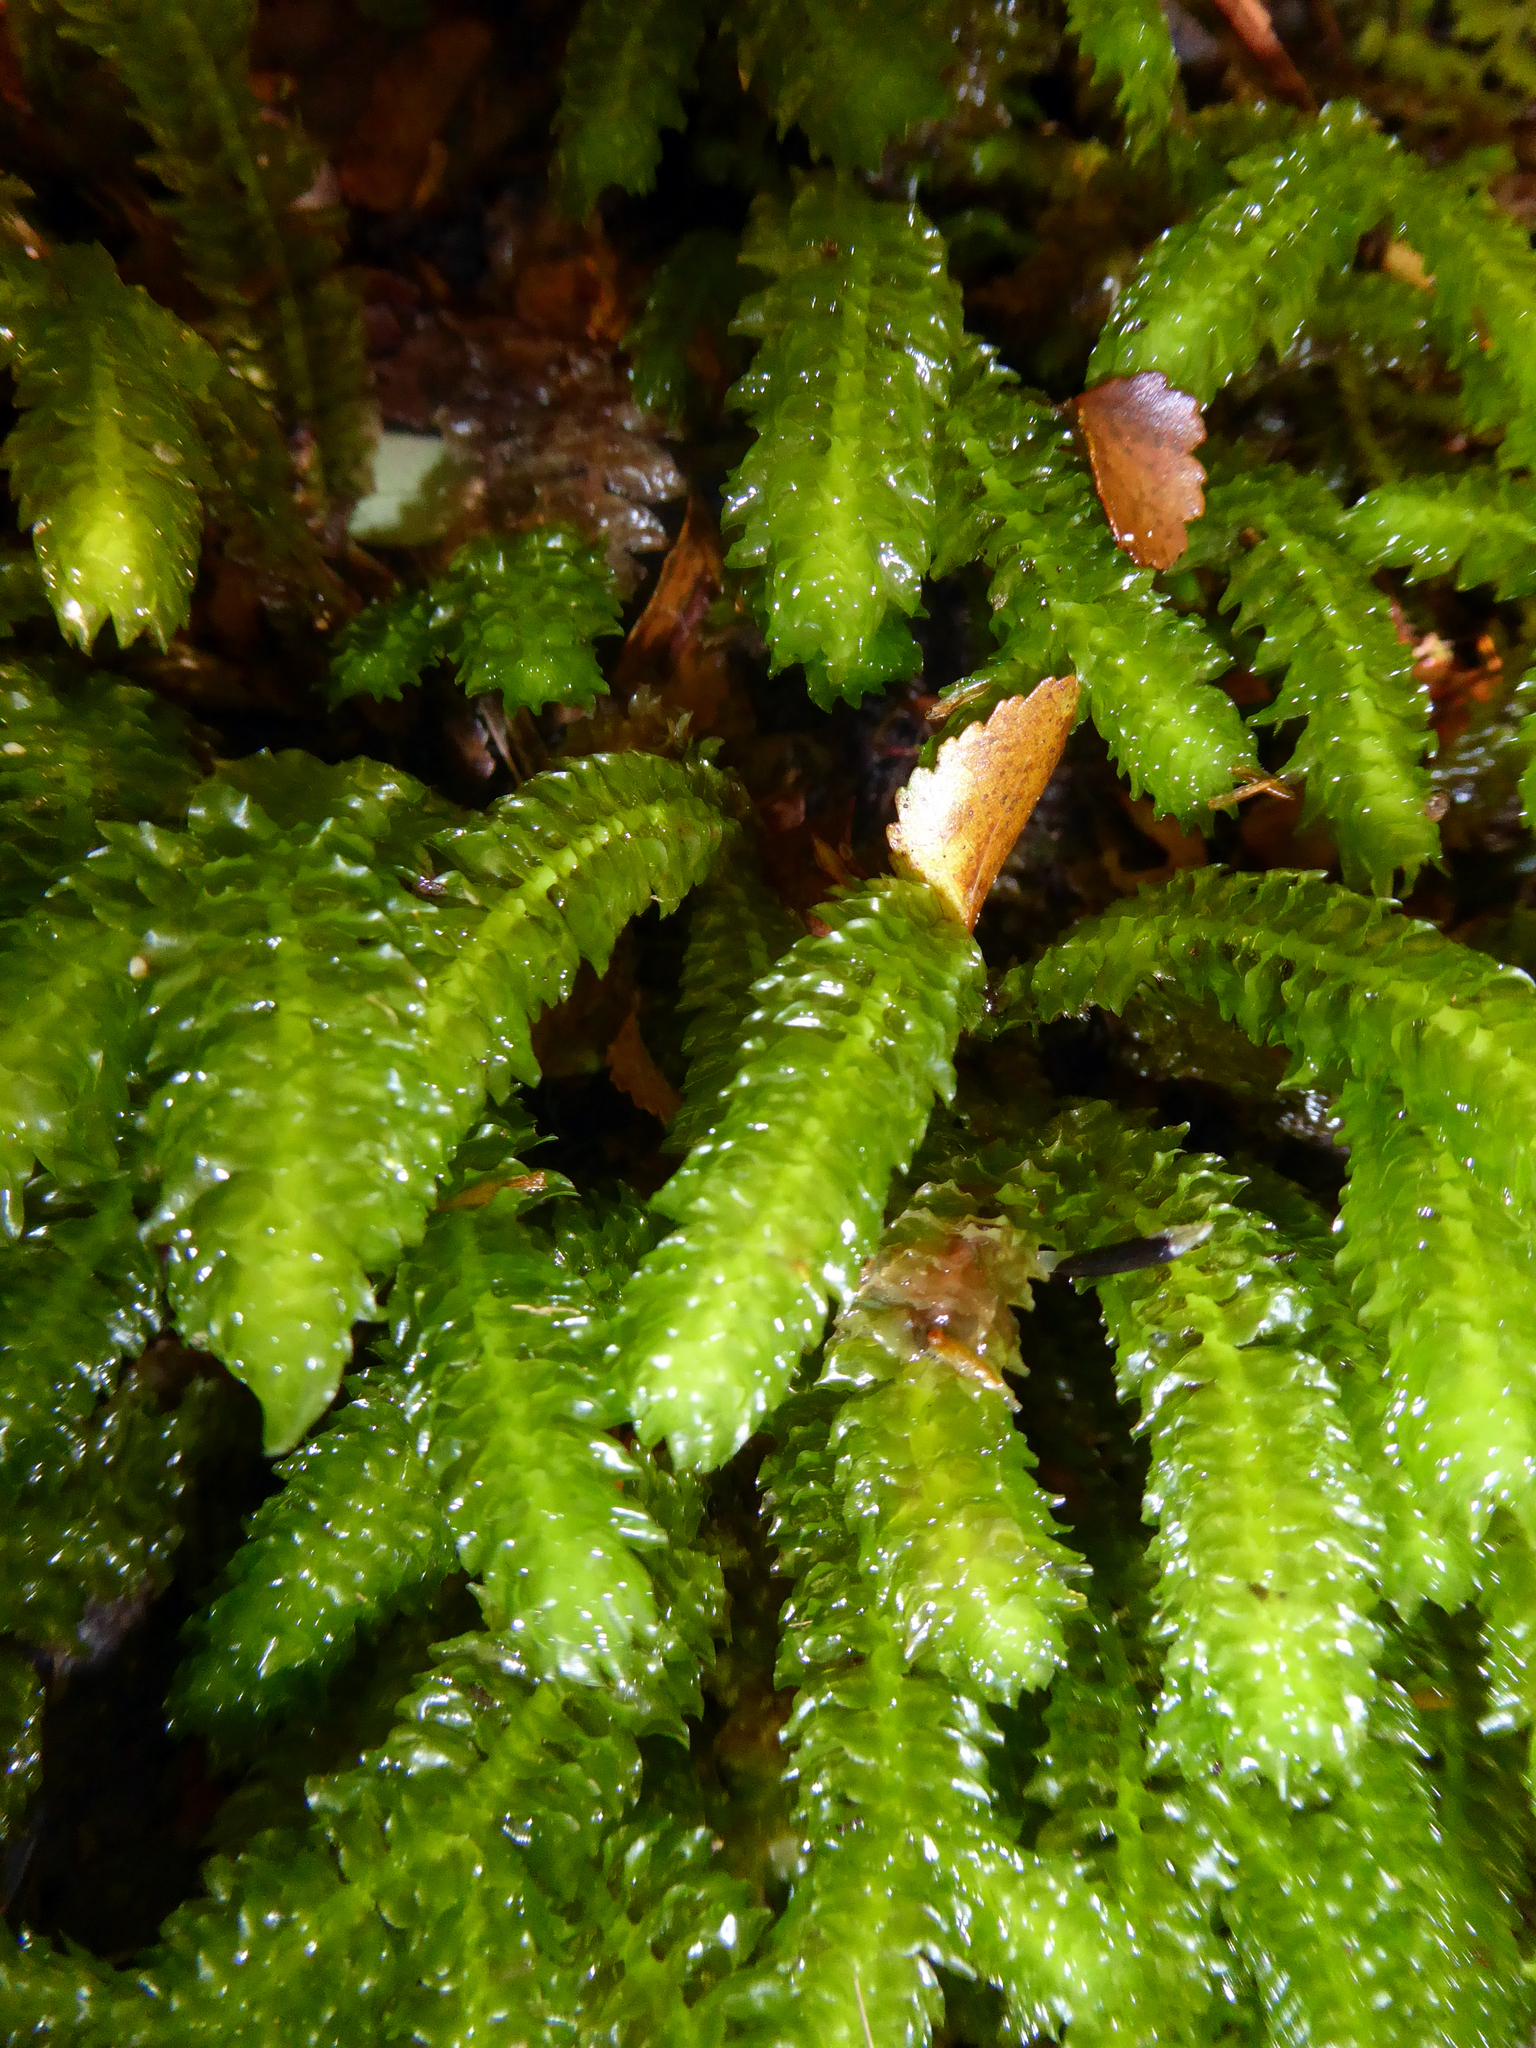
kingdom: Plantae
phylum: Marchantiophyta
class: Jungermanniopsida
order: Jungermanniales
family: Schistochilaceae
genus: Schistochila
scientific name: Schistochila appendiculata
